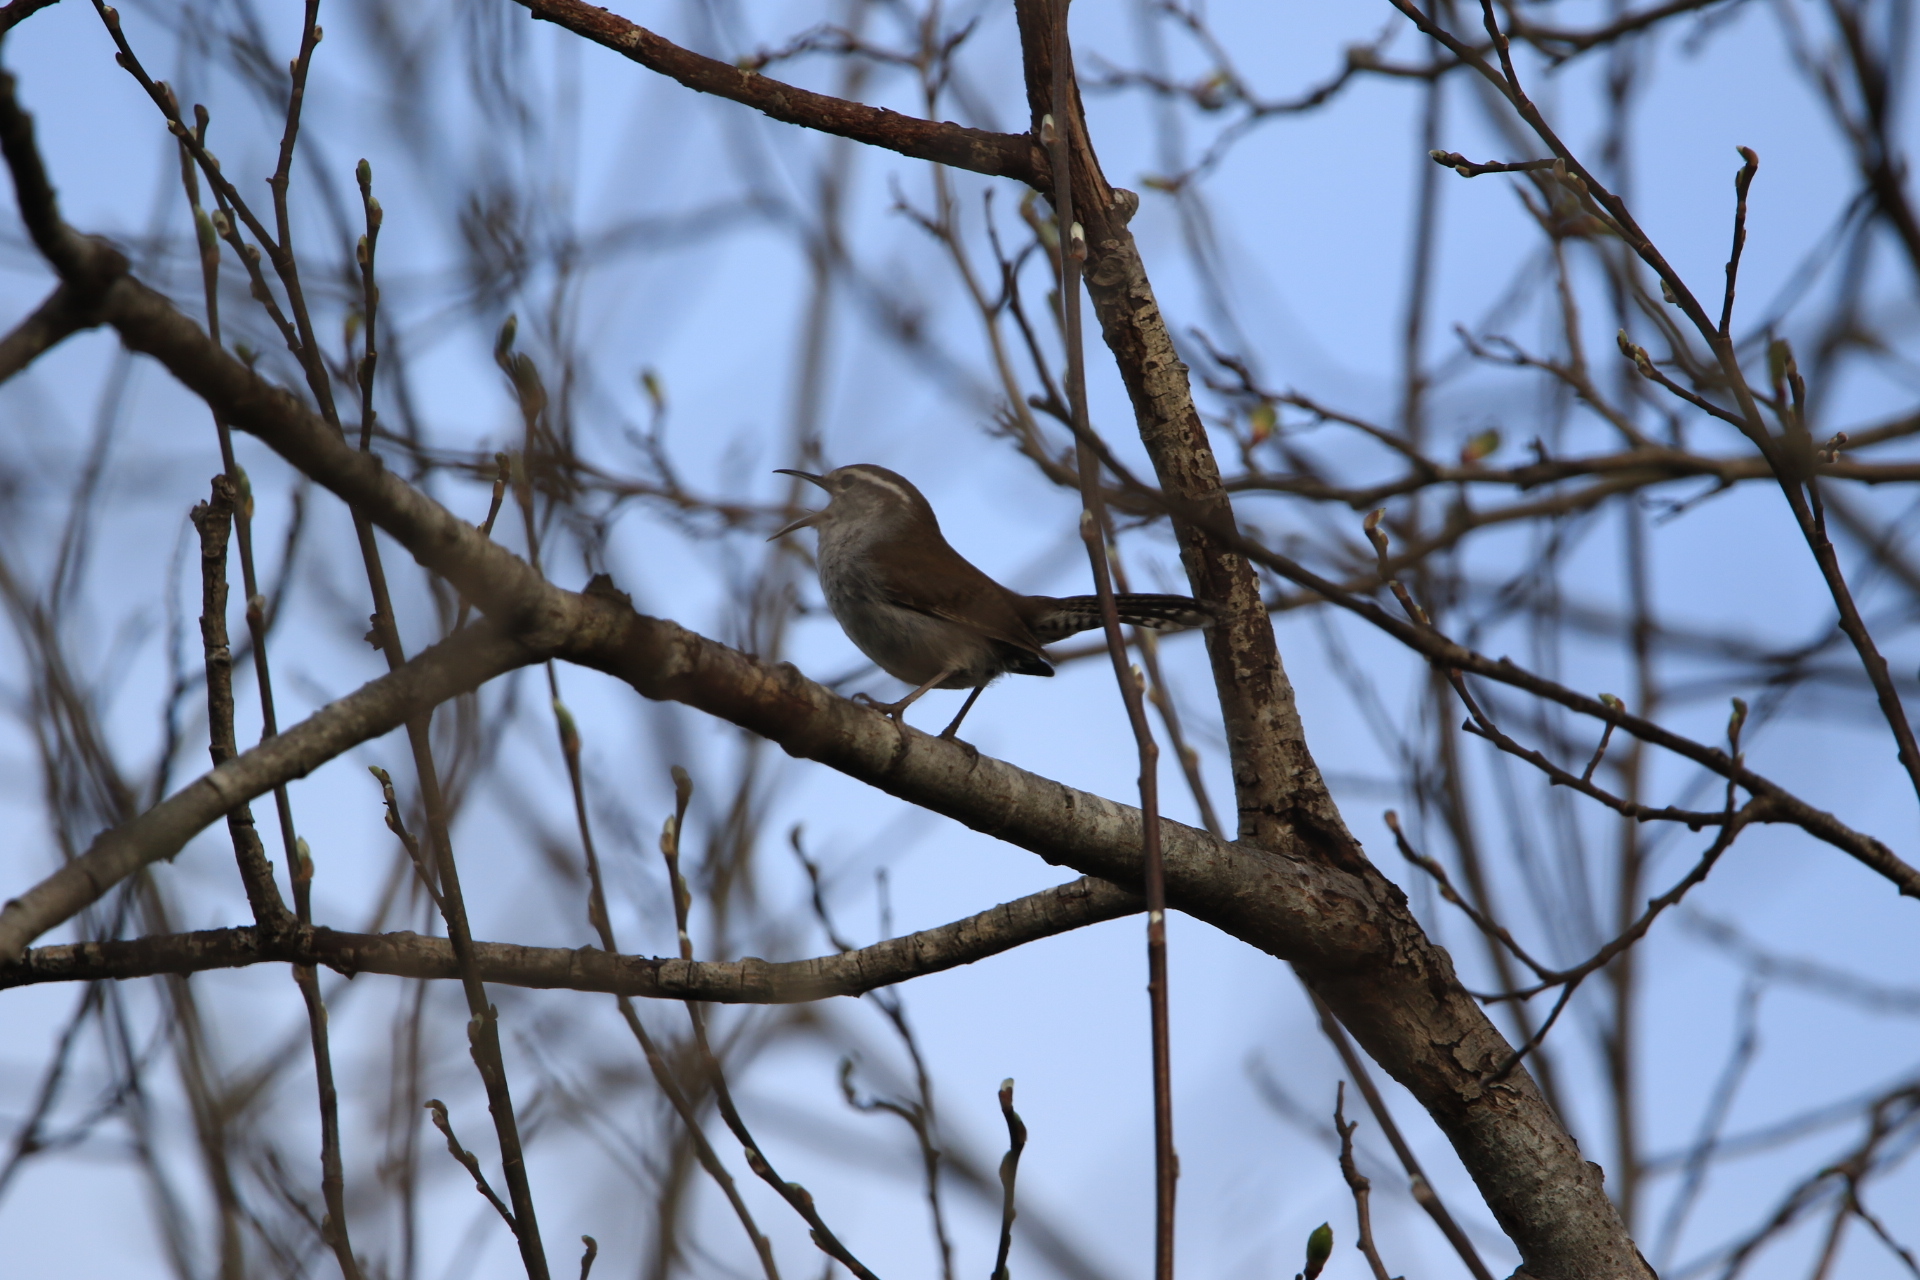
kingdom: Animalia
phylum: Chordata
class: Aves
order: Passeriformes
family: Troglodytidae
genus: Thryomanes
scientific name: Thryomanes bewickii
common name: Bewick's wren
